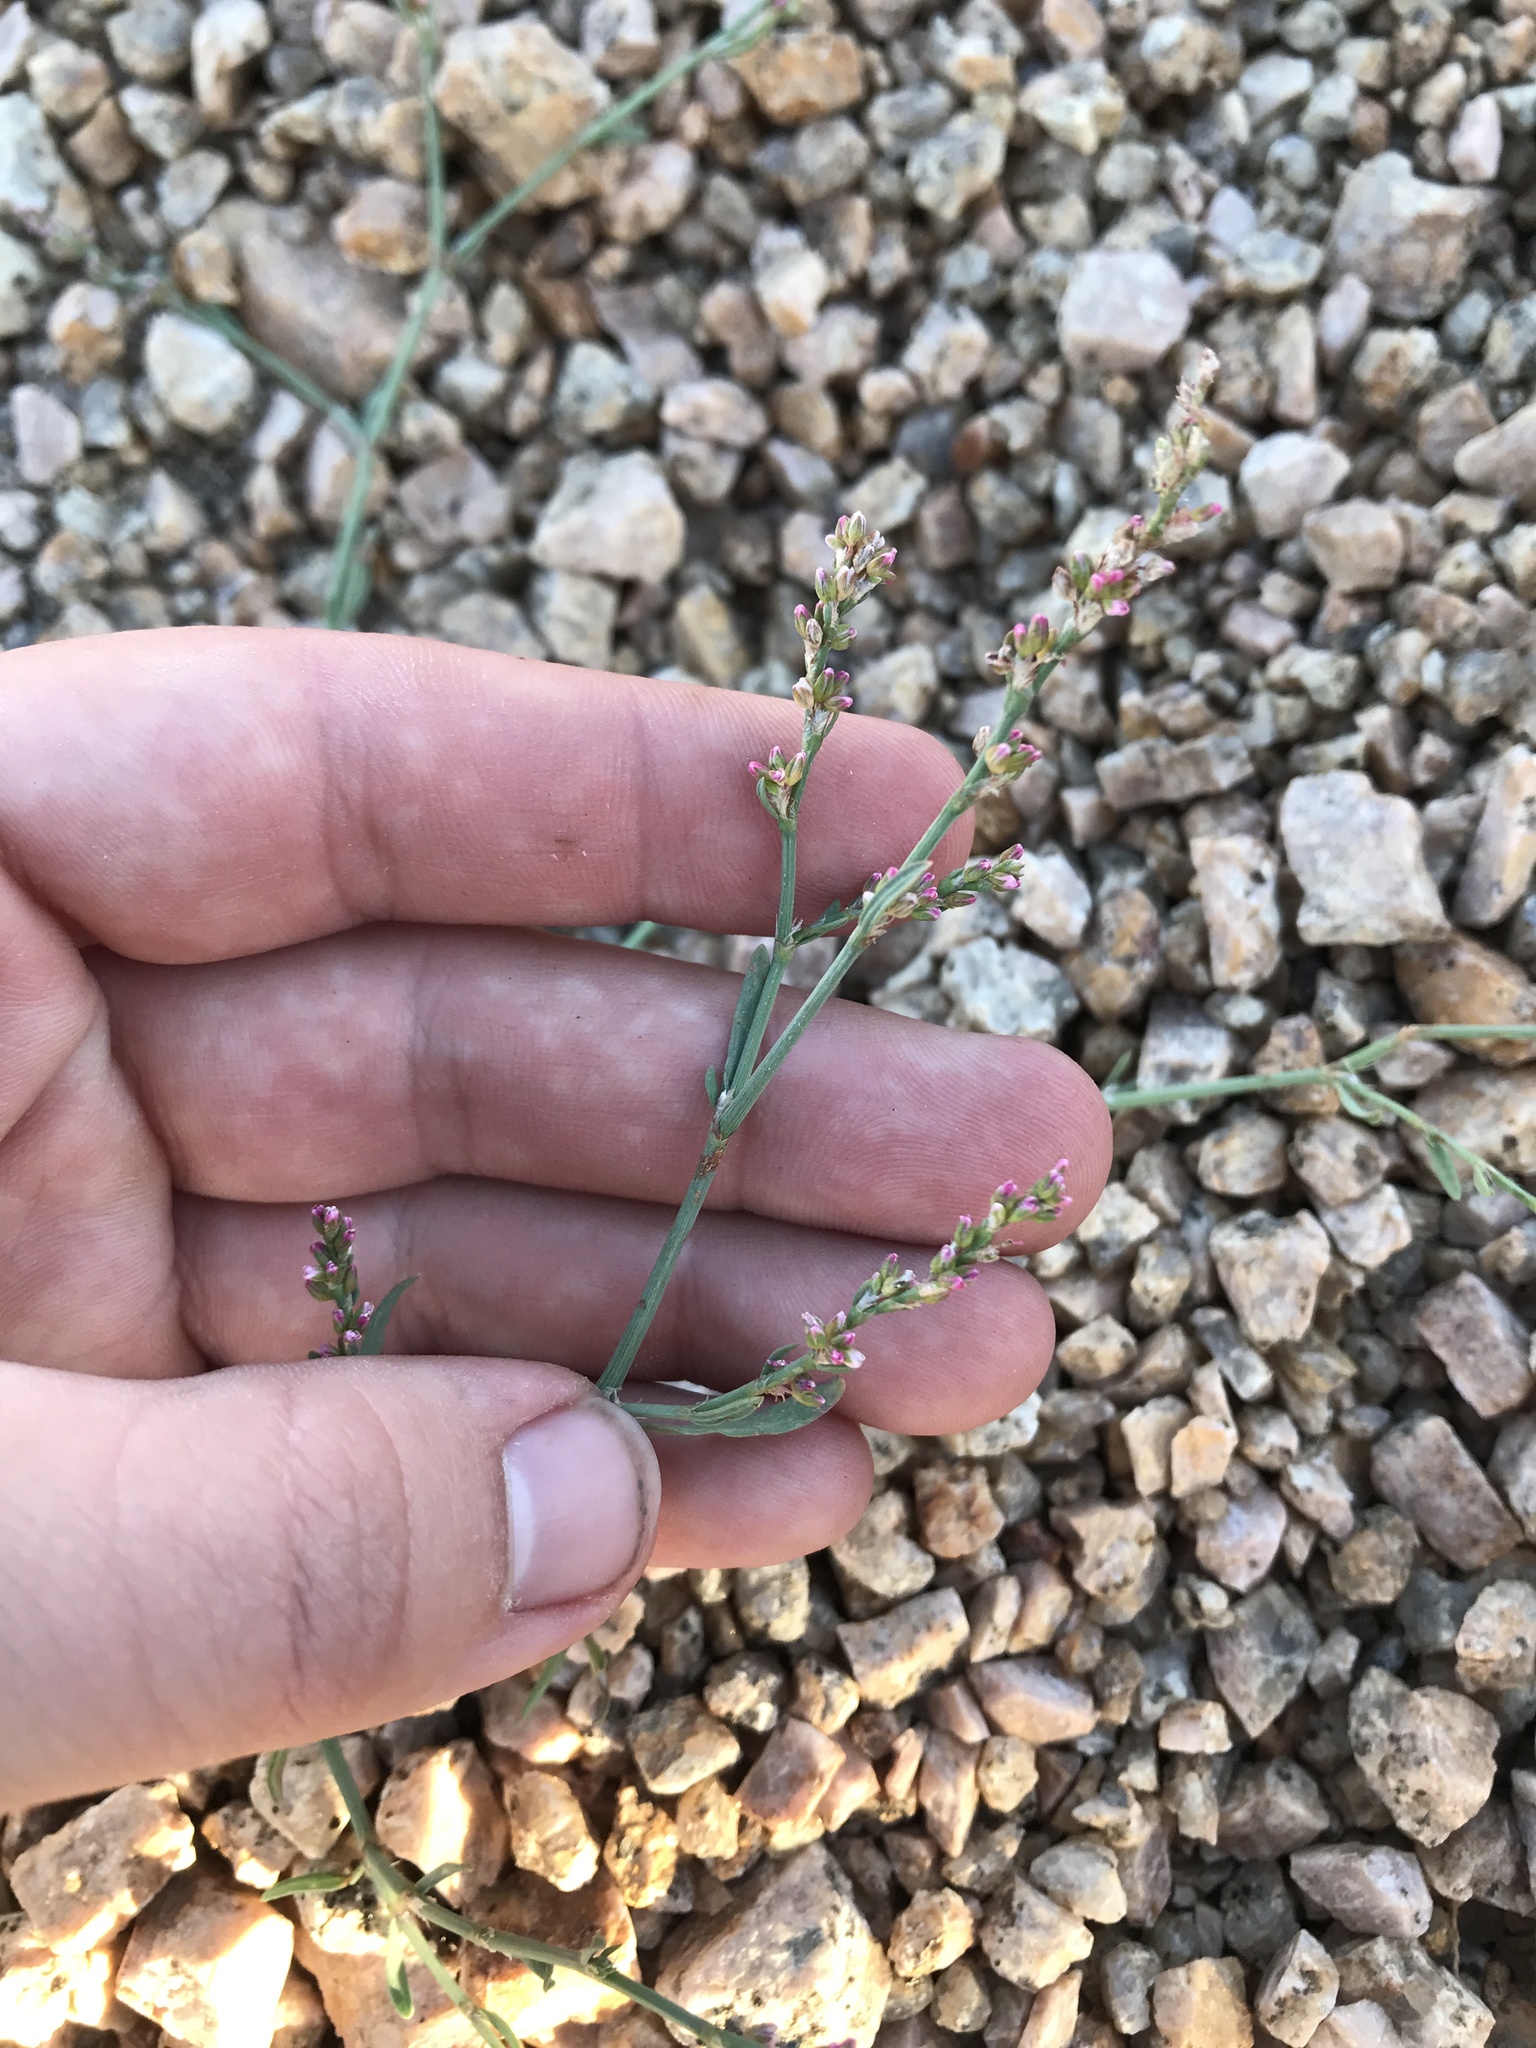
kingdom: Plantae
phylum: Tracheophyta
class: Magnoliopsida
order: Caryophyllales
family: Polygonaceae
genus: Polygonum
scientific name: Polygonum aviculare
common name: Prostrate knotweed
